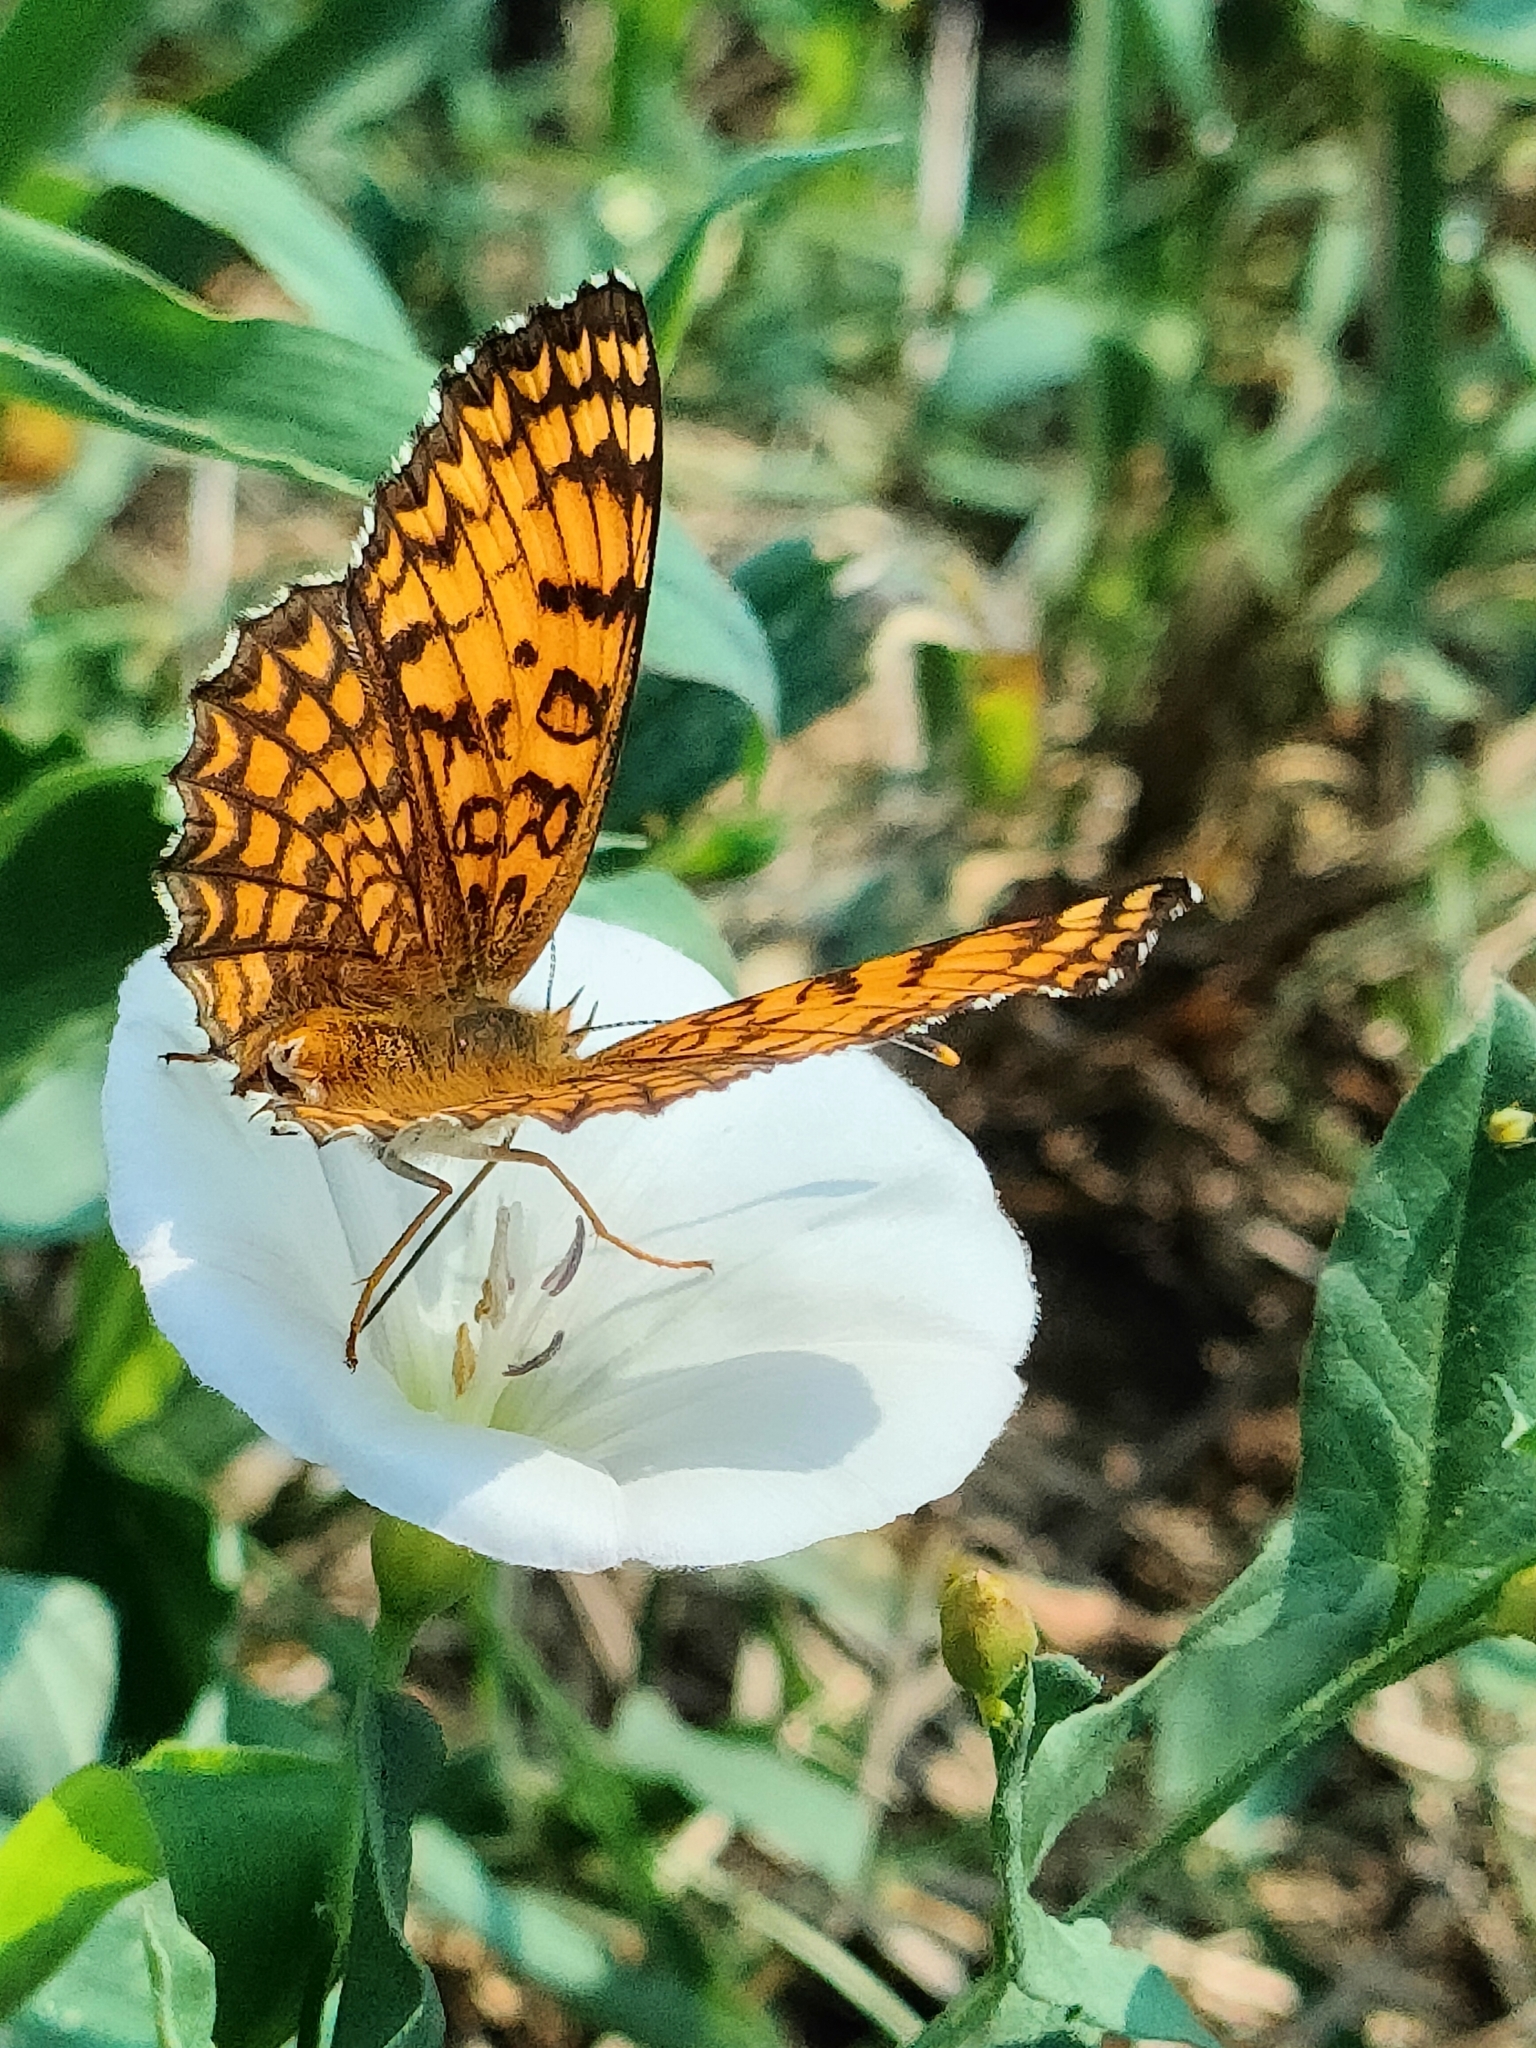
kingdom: Animalia
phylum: Arthropoda
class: Insecta
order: Lepidoptera
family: Nymphalidae
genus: Melitaea
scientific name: Melitaea phoebe
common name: Knapweed fritillary
